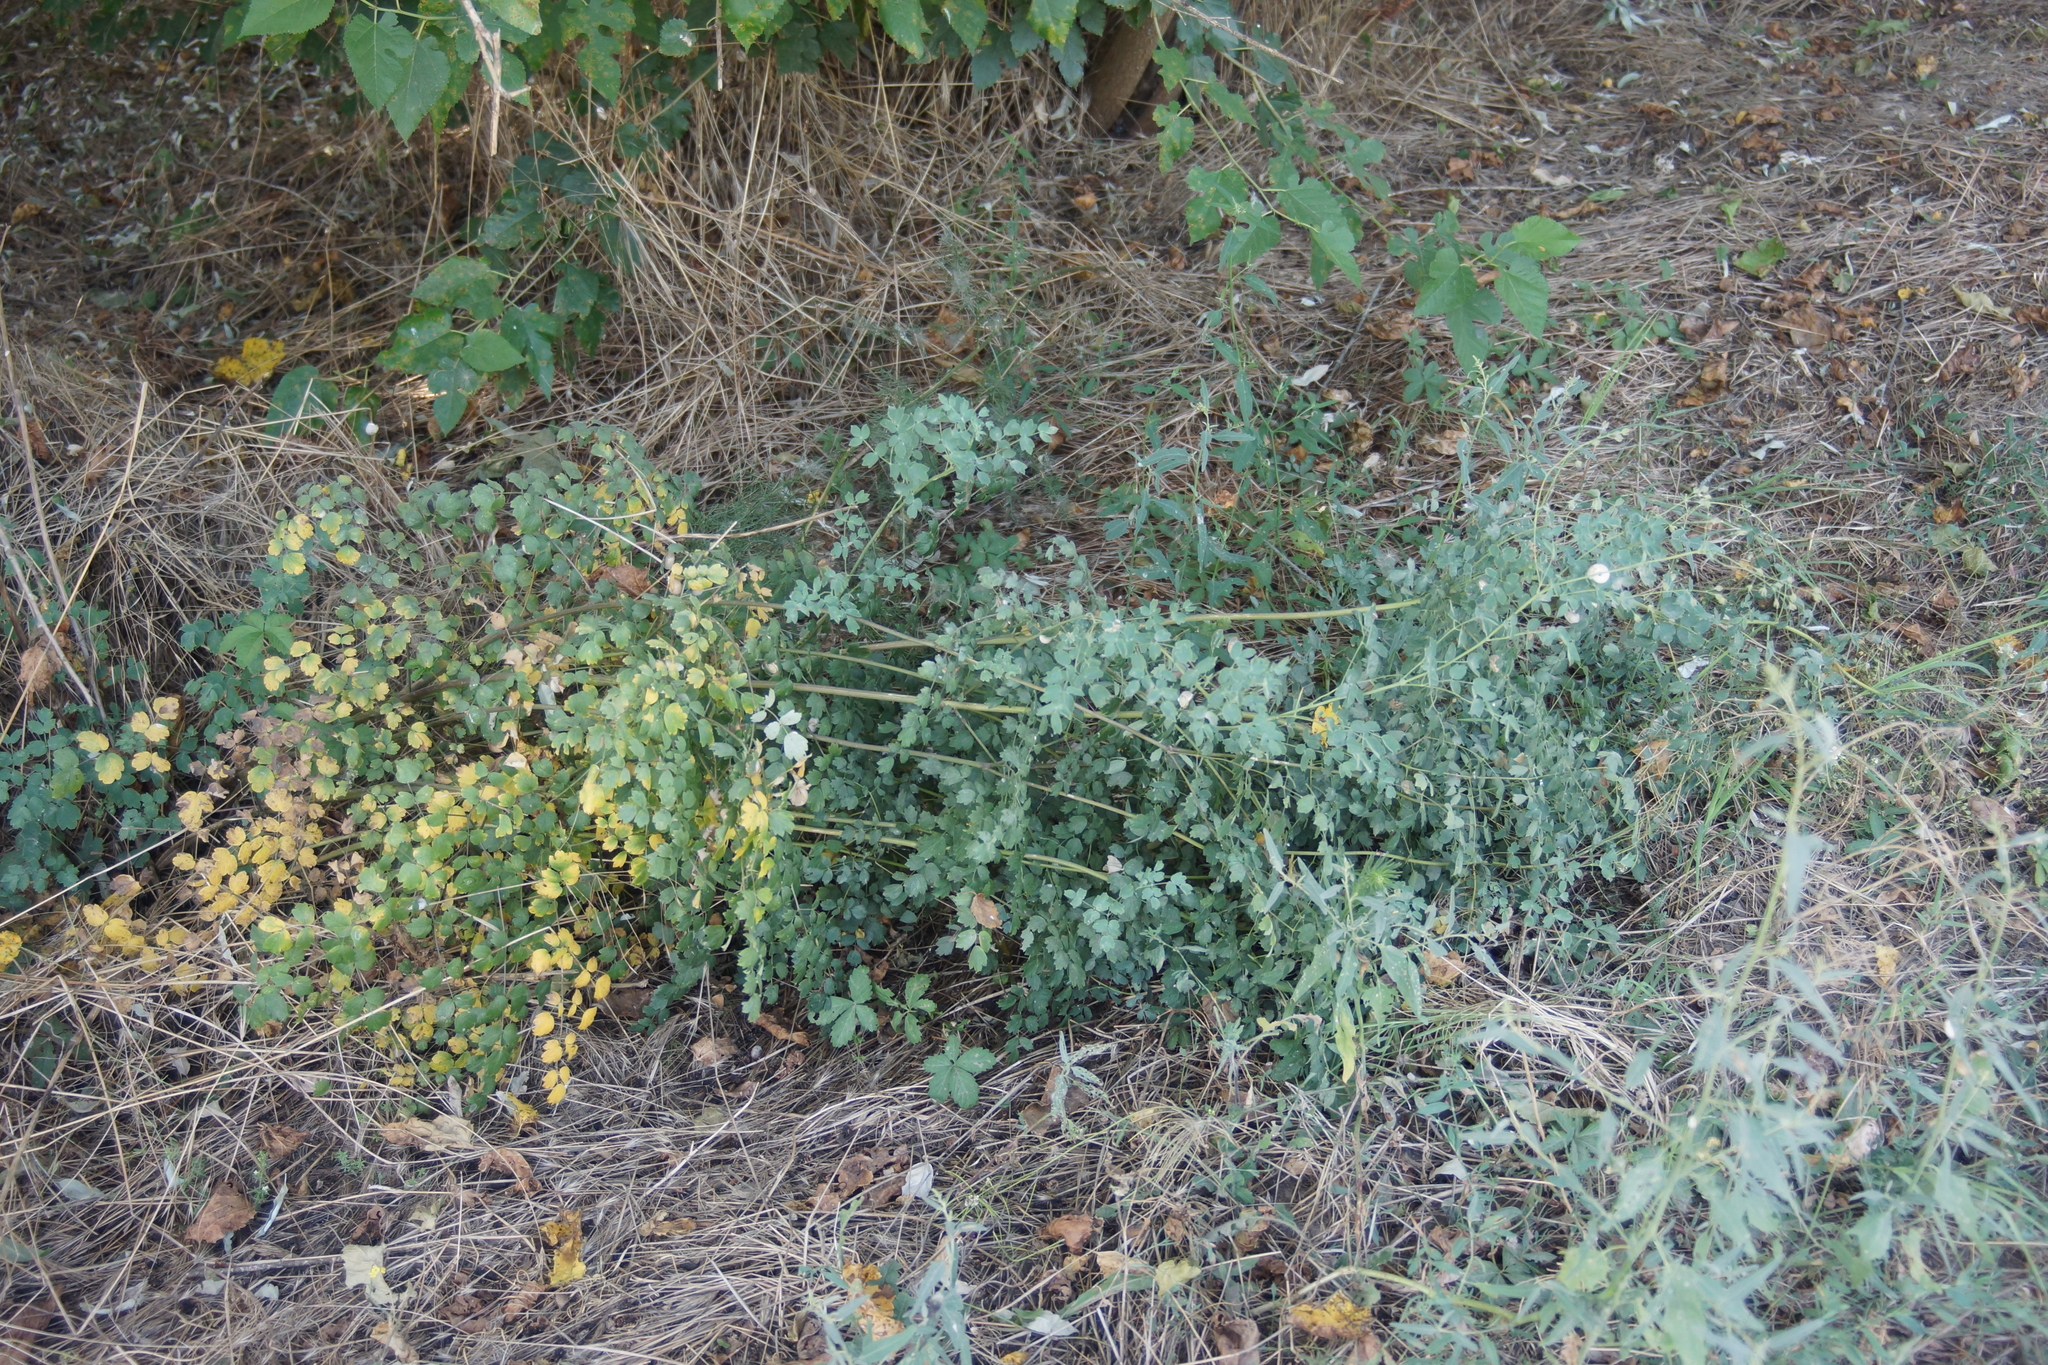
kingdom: Plantae
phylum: Tracheophyta
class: Magnoliopsida
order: Ranunculales
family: Ranunculaceae
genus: Thalictrum
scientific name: Thalictrum minus
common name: Lesser meadow-rue
